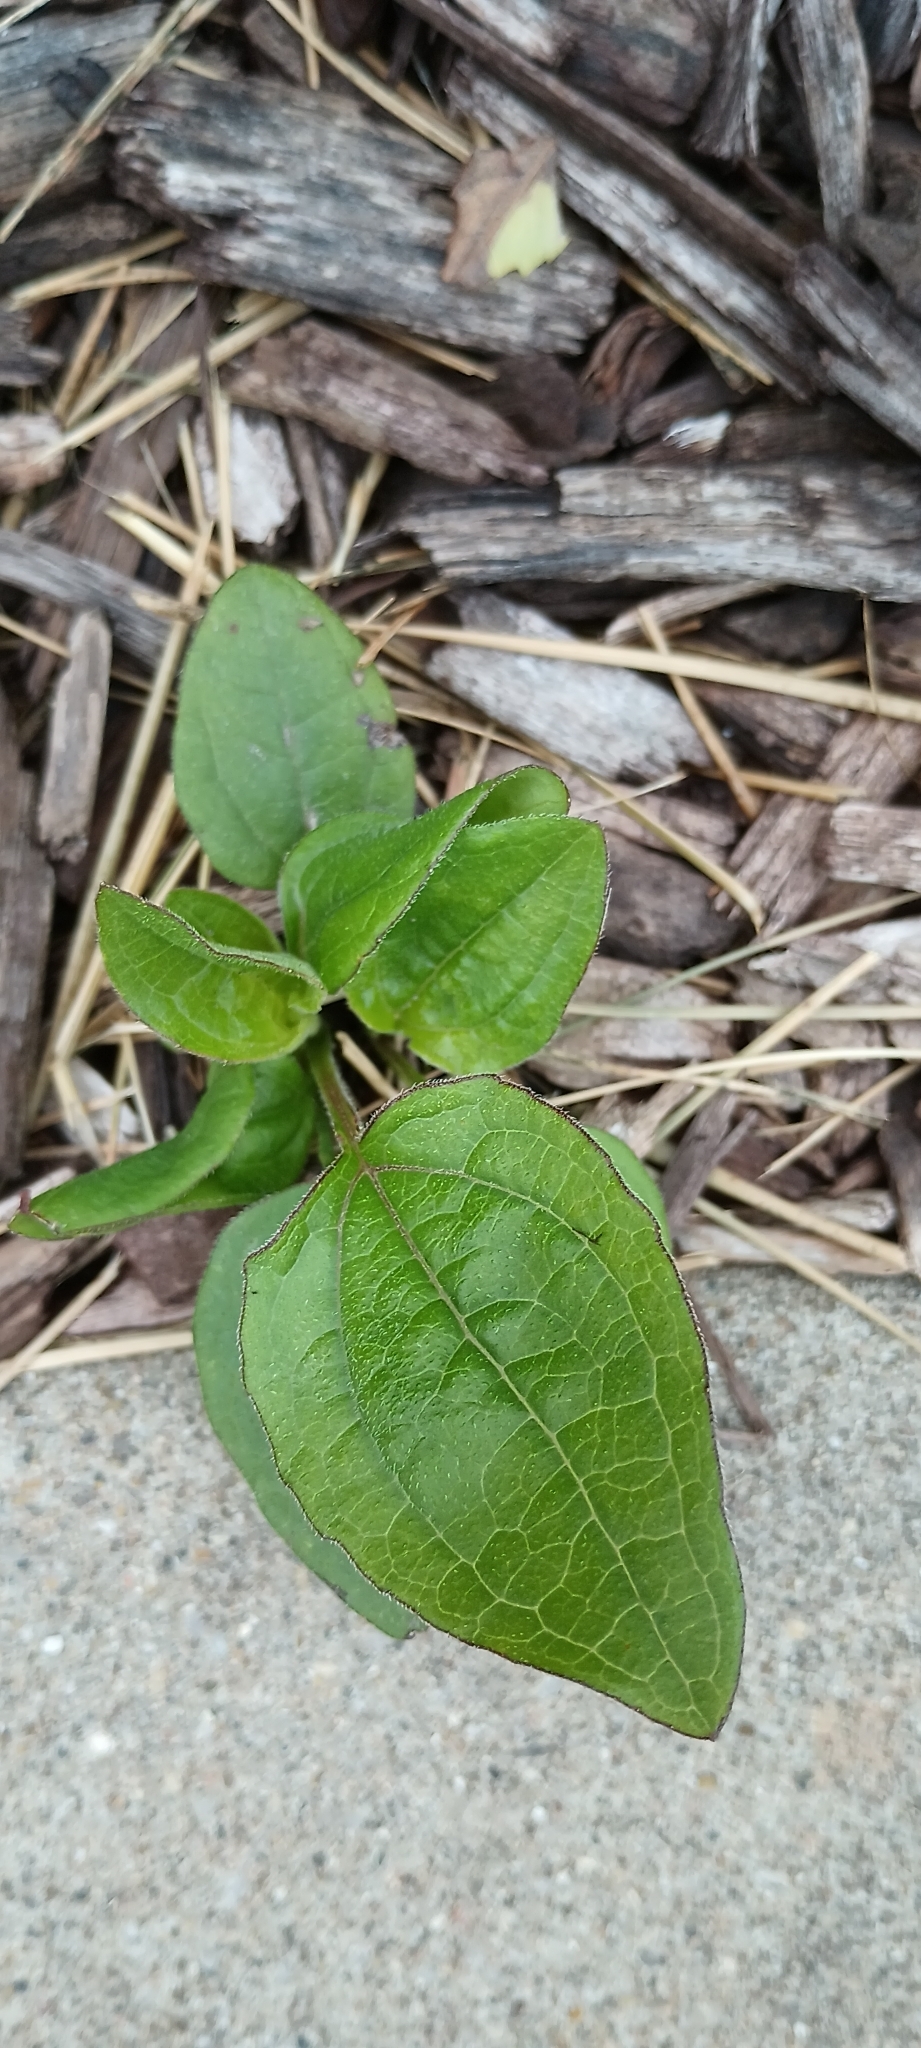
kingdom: Plantae
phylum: Tracheophyta
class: Liliopsida
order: Liliales
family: Smilacaceae
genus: Smilax
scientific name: Smilax tamnoides
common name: Hellfetter
